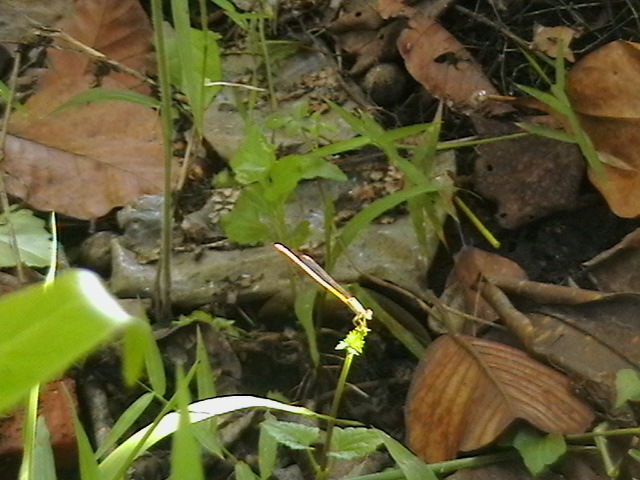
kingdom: Animalia
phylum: Arthropoda
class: Insecta
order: Odonata
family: Coenagrionidae
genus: Ceriagrion
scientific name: Ceriagrion coromandelianum
